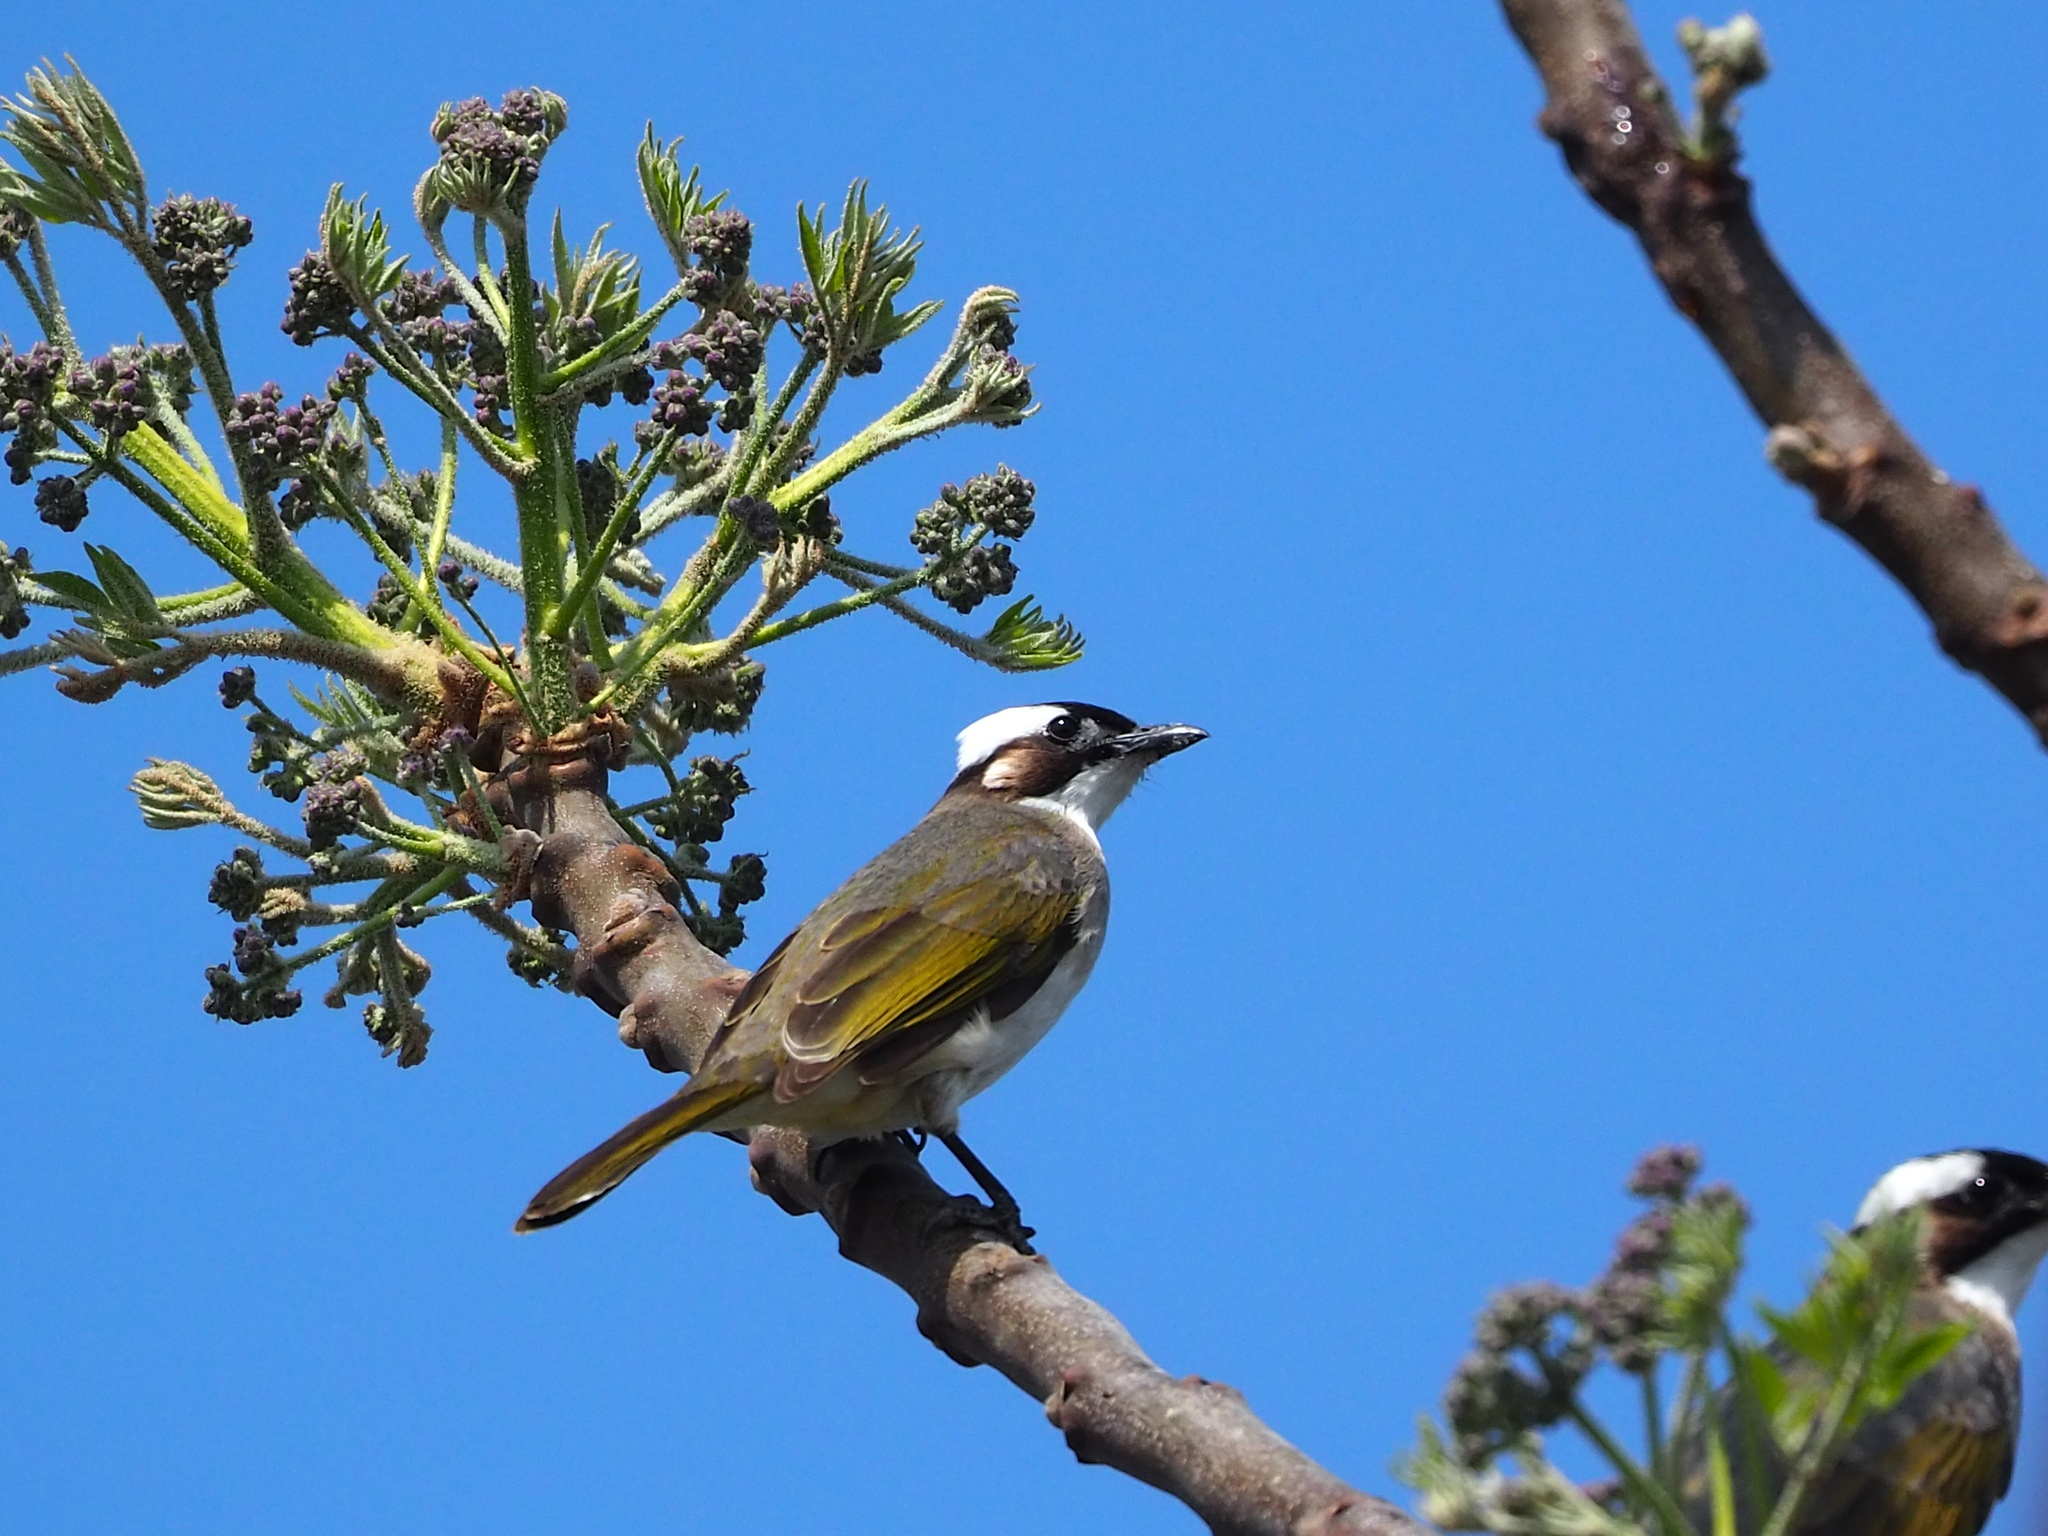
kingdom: Animalia
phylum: Chordata
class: Aves
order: Passeriformes
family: Pycnonotidae
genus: Pycnonotus
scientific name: Pycnonotus sinensis
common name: Light-vented bulbul
